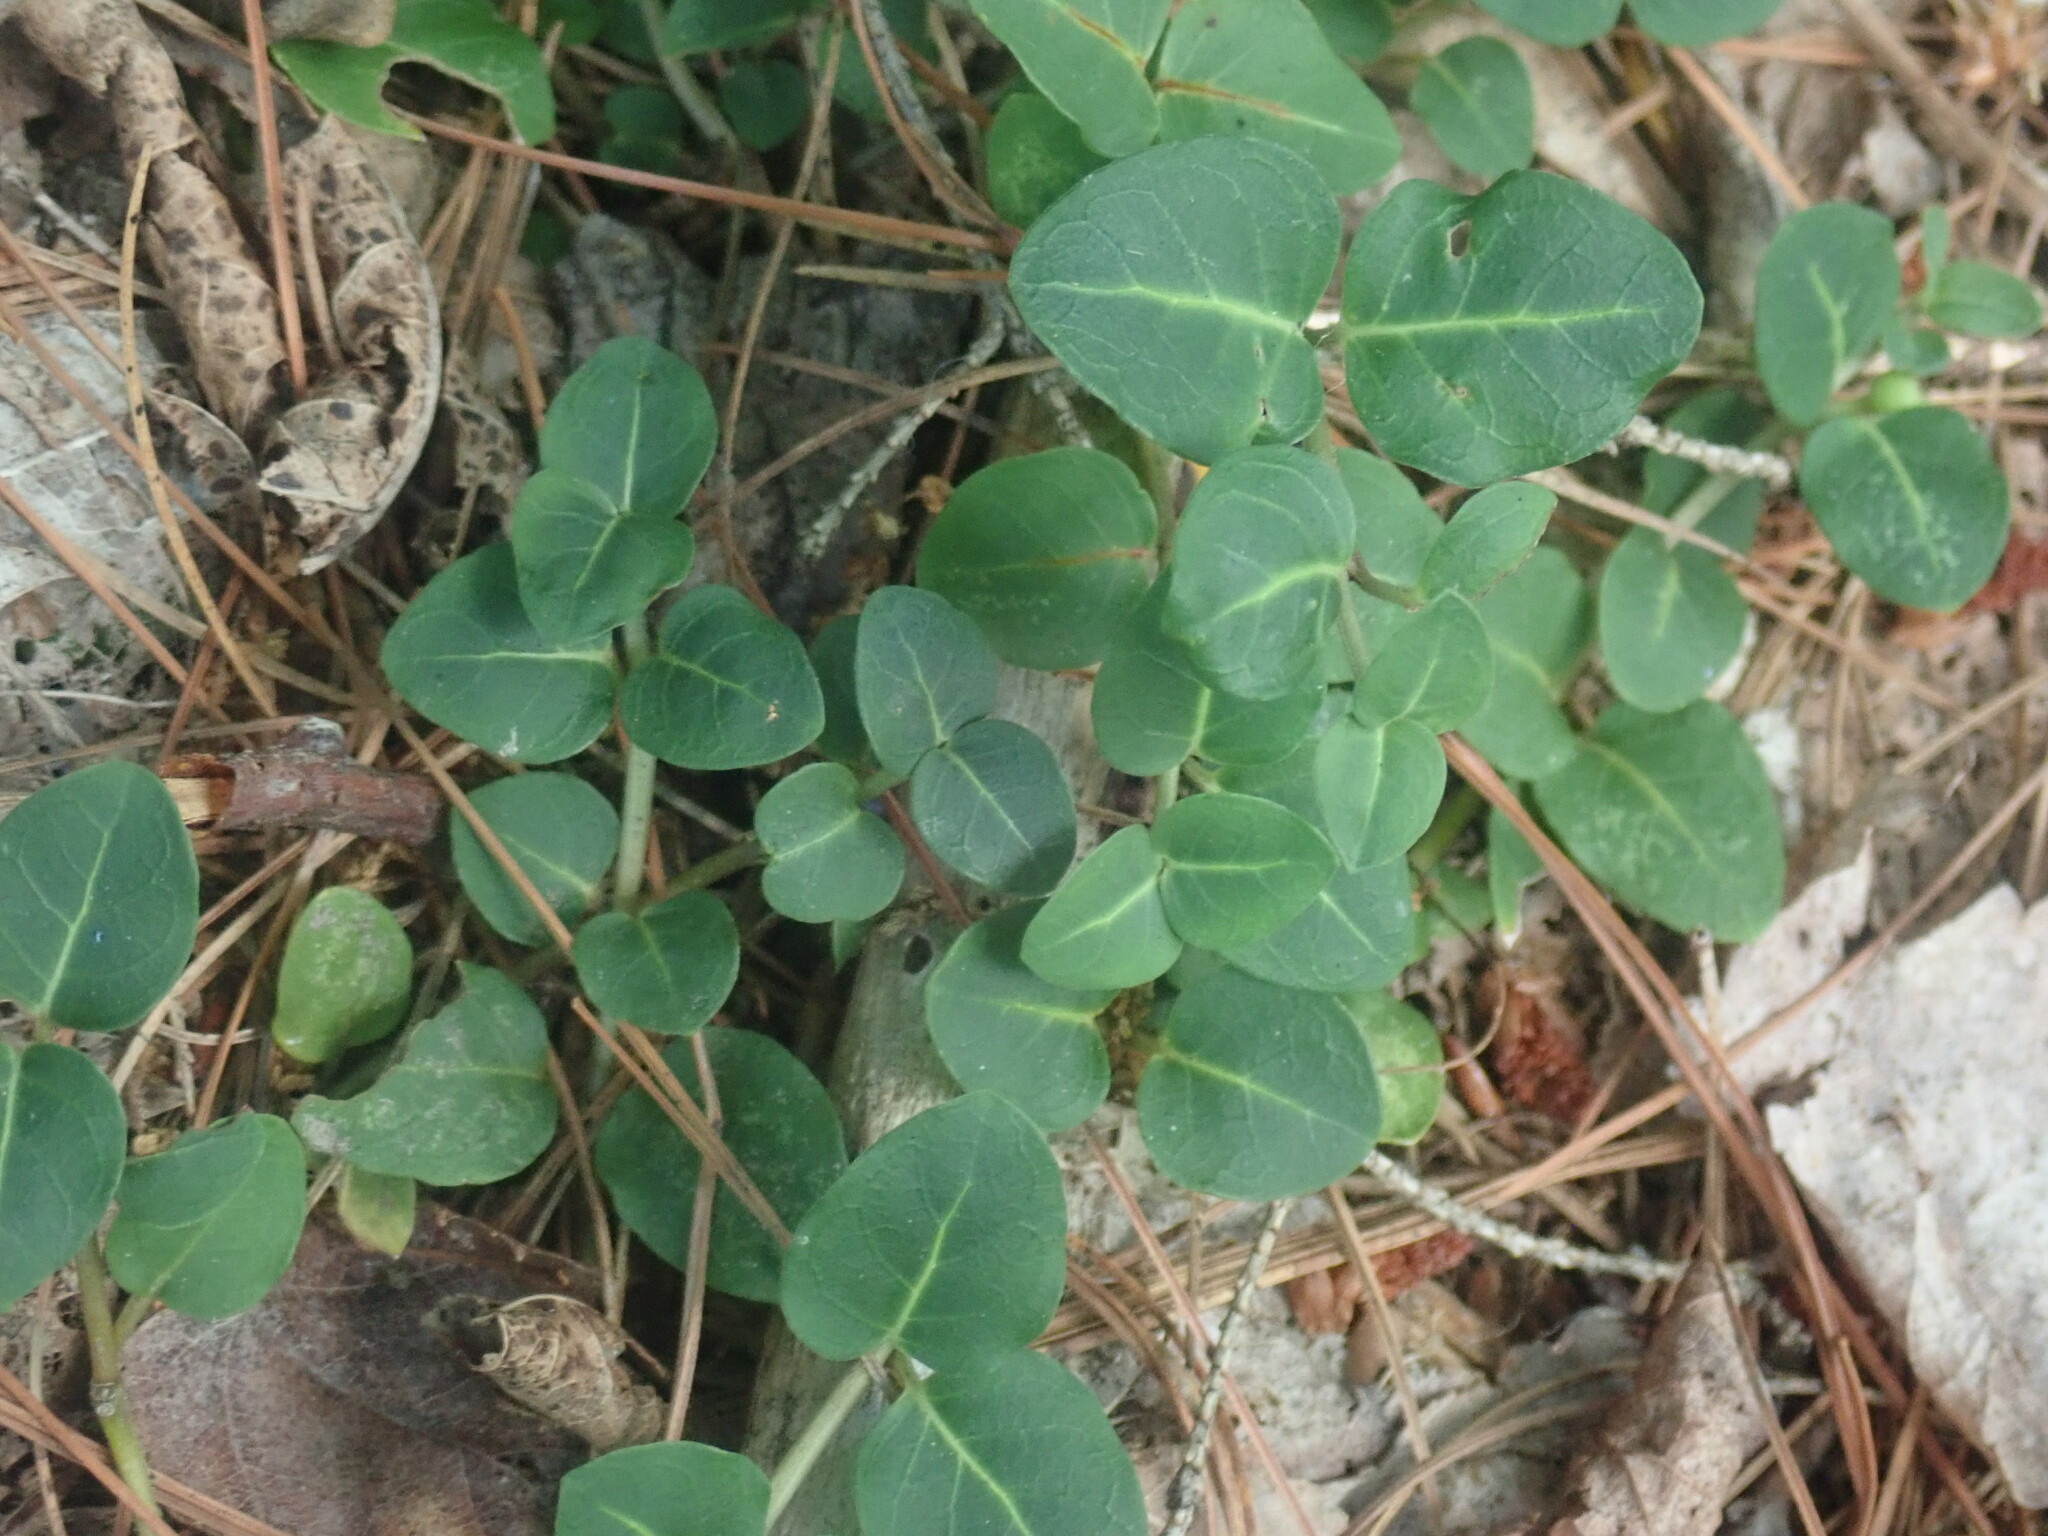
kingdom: Plantae
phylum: Tracheophyta
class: Magnoliopsida
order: Gentianales
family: Rubiaceae
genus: Mitchella
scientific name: Mitchella repens
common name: Partridge-berry
